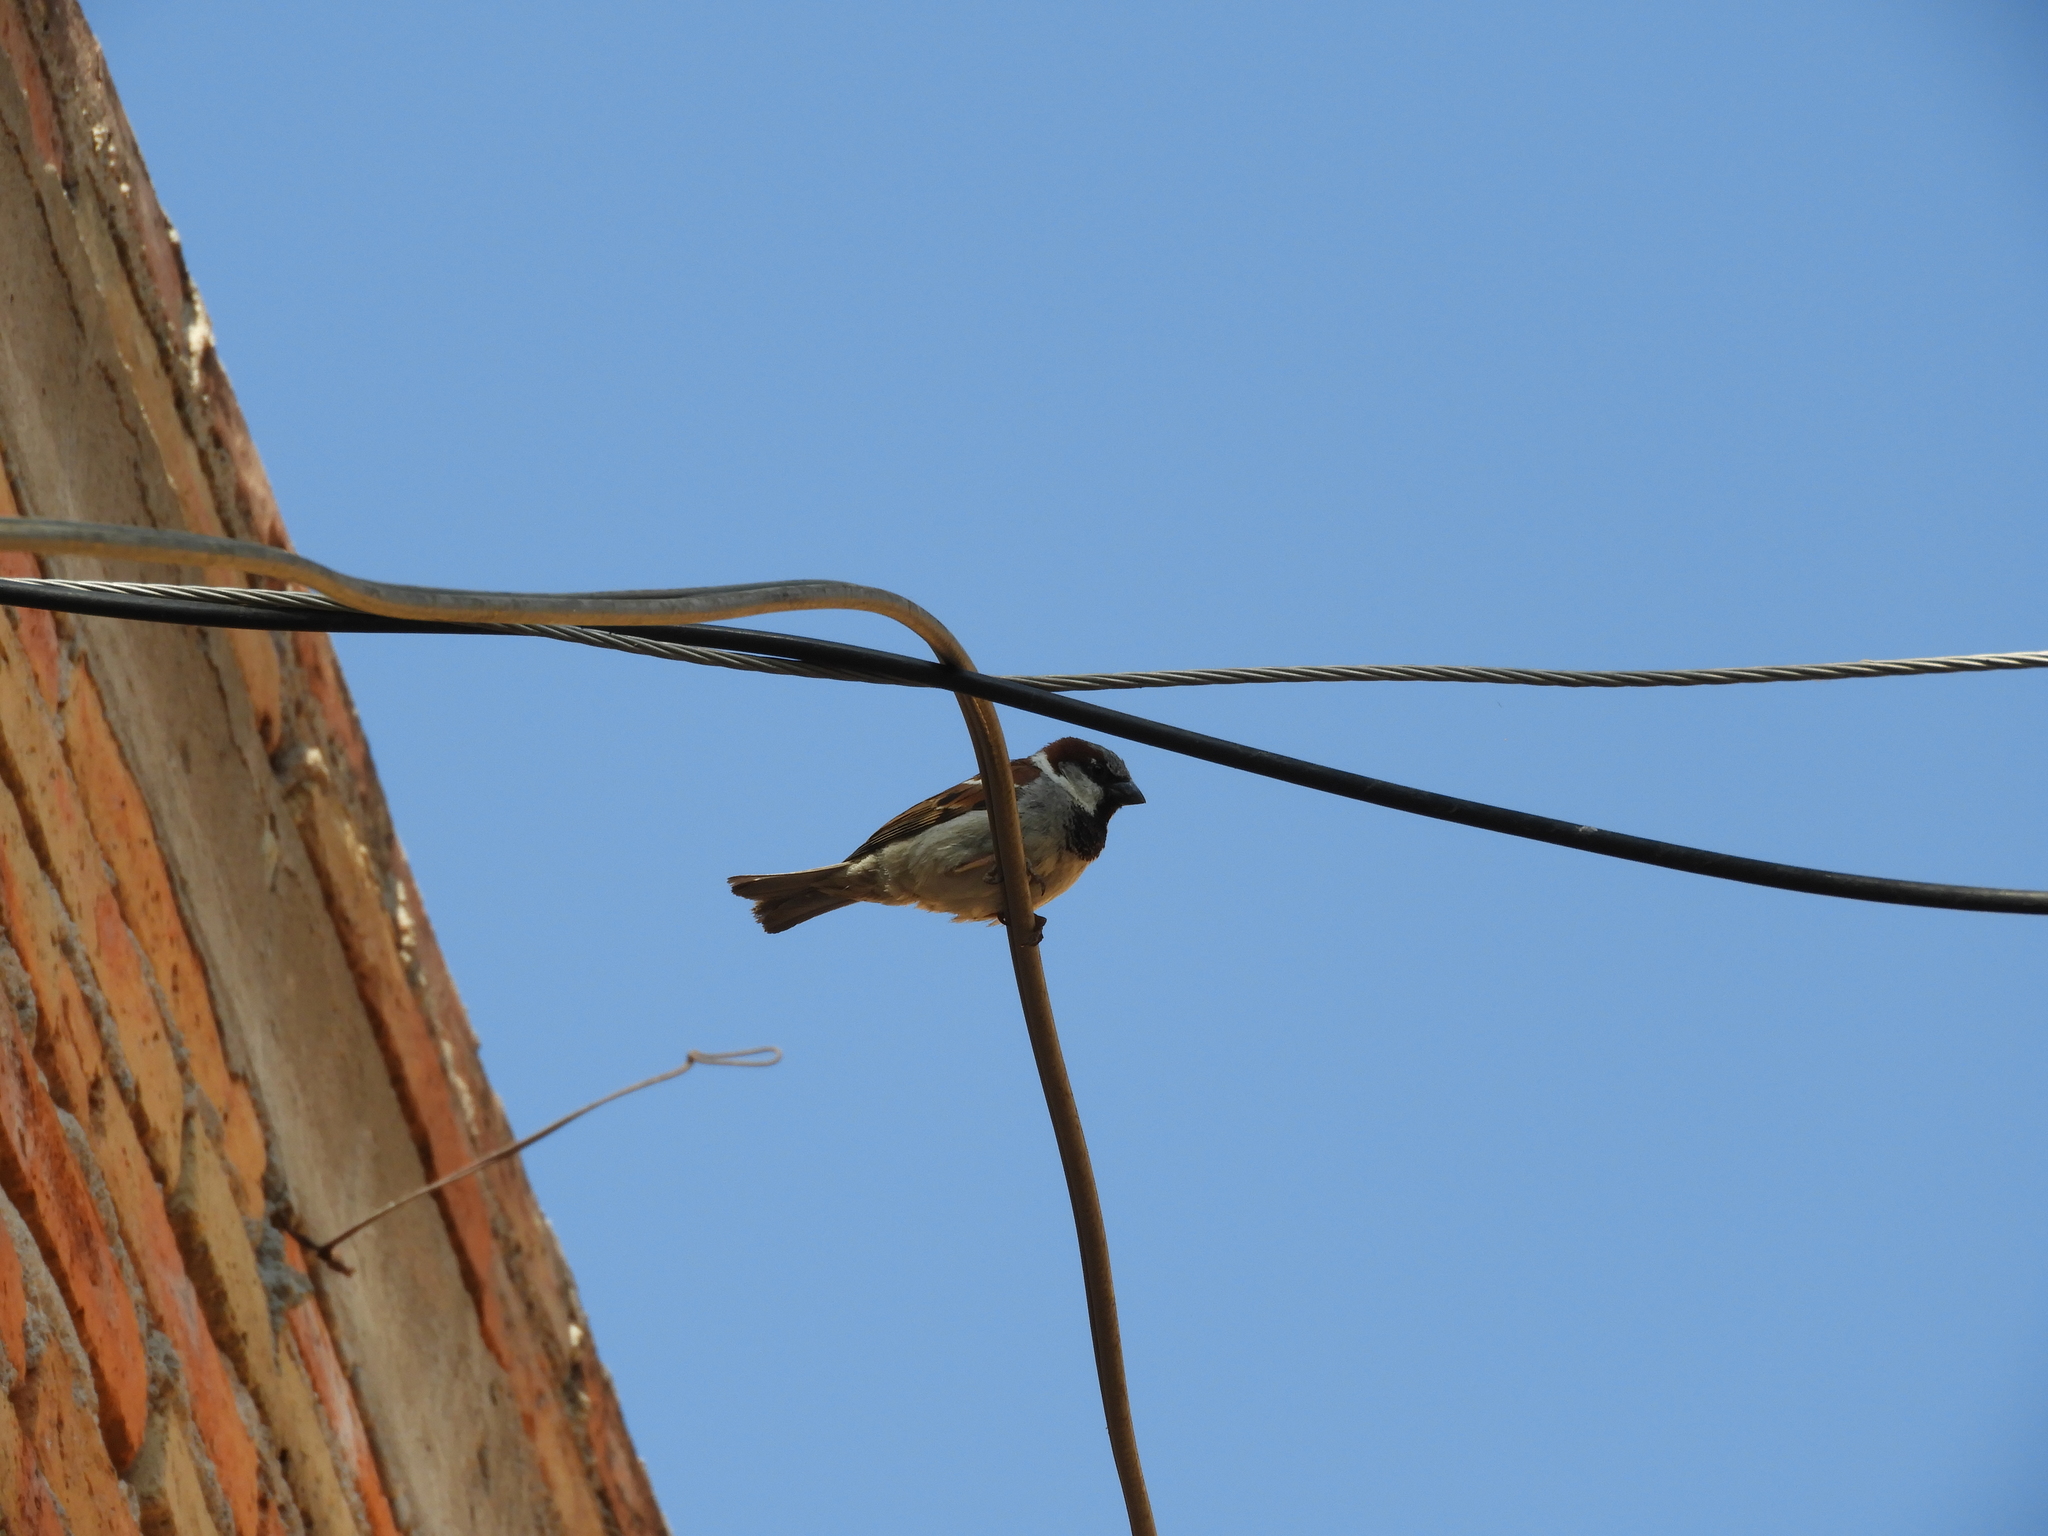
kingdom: Animalia
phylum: Chordata
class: Aves
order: Passeriformes
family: Passeridae
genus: Passer
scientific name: Passer domesticus
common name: House sparrow
